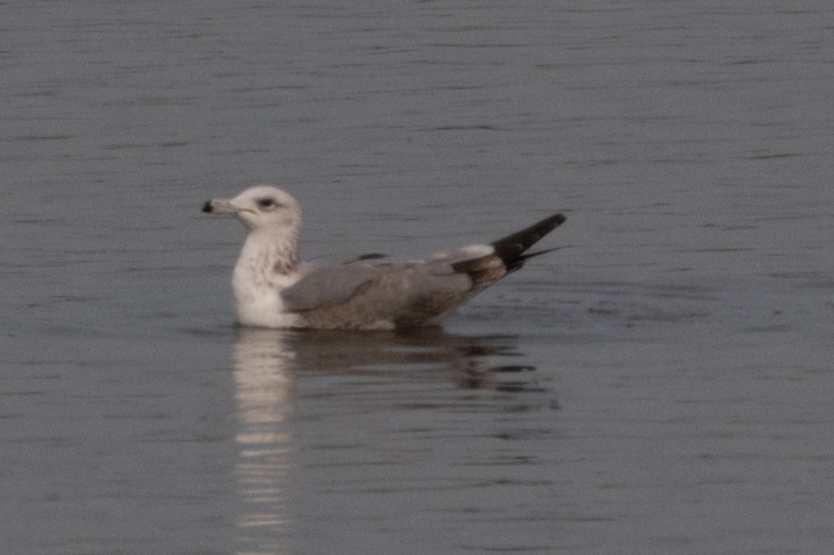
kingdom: Animalia
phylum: Chordata
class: Aves
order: Charadriiformes
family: Laridae
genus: Larus
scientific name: Larus californicus
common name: California gull
